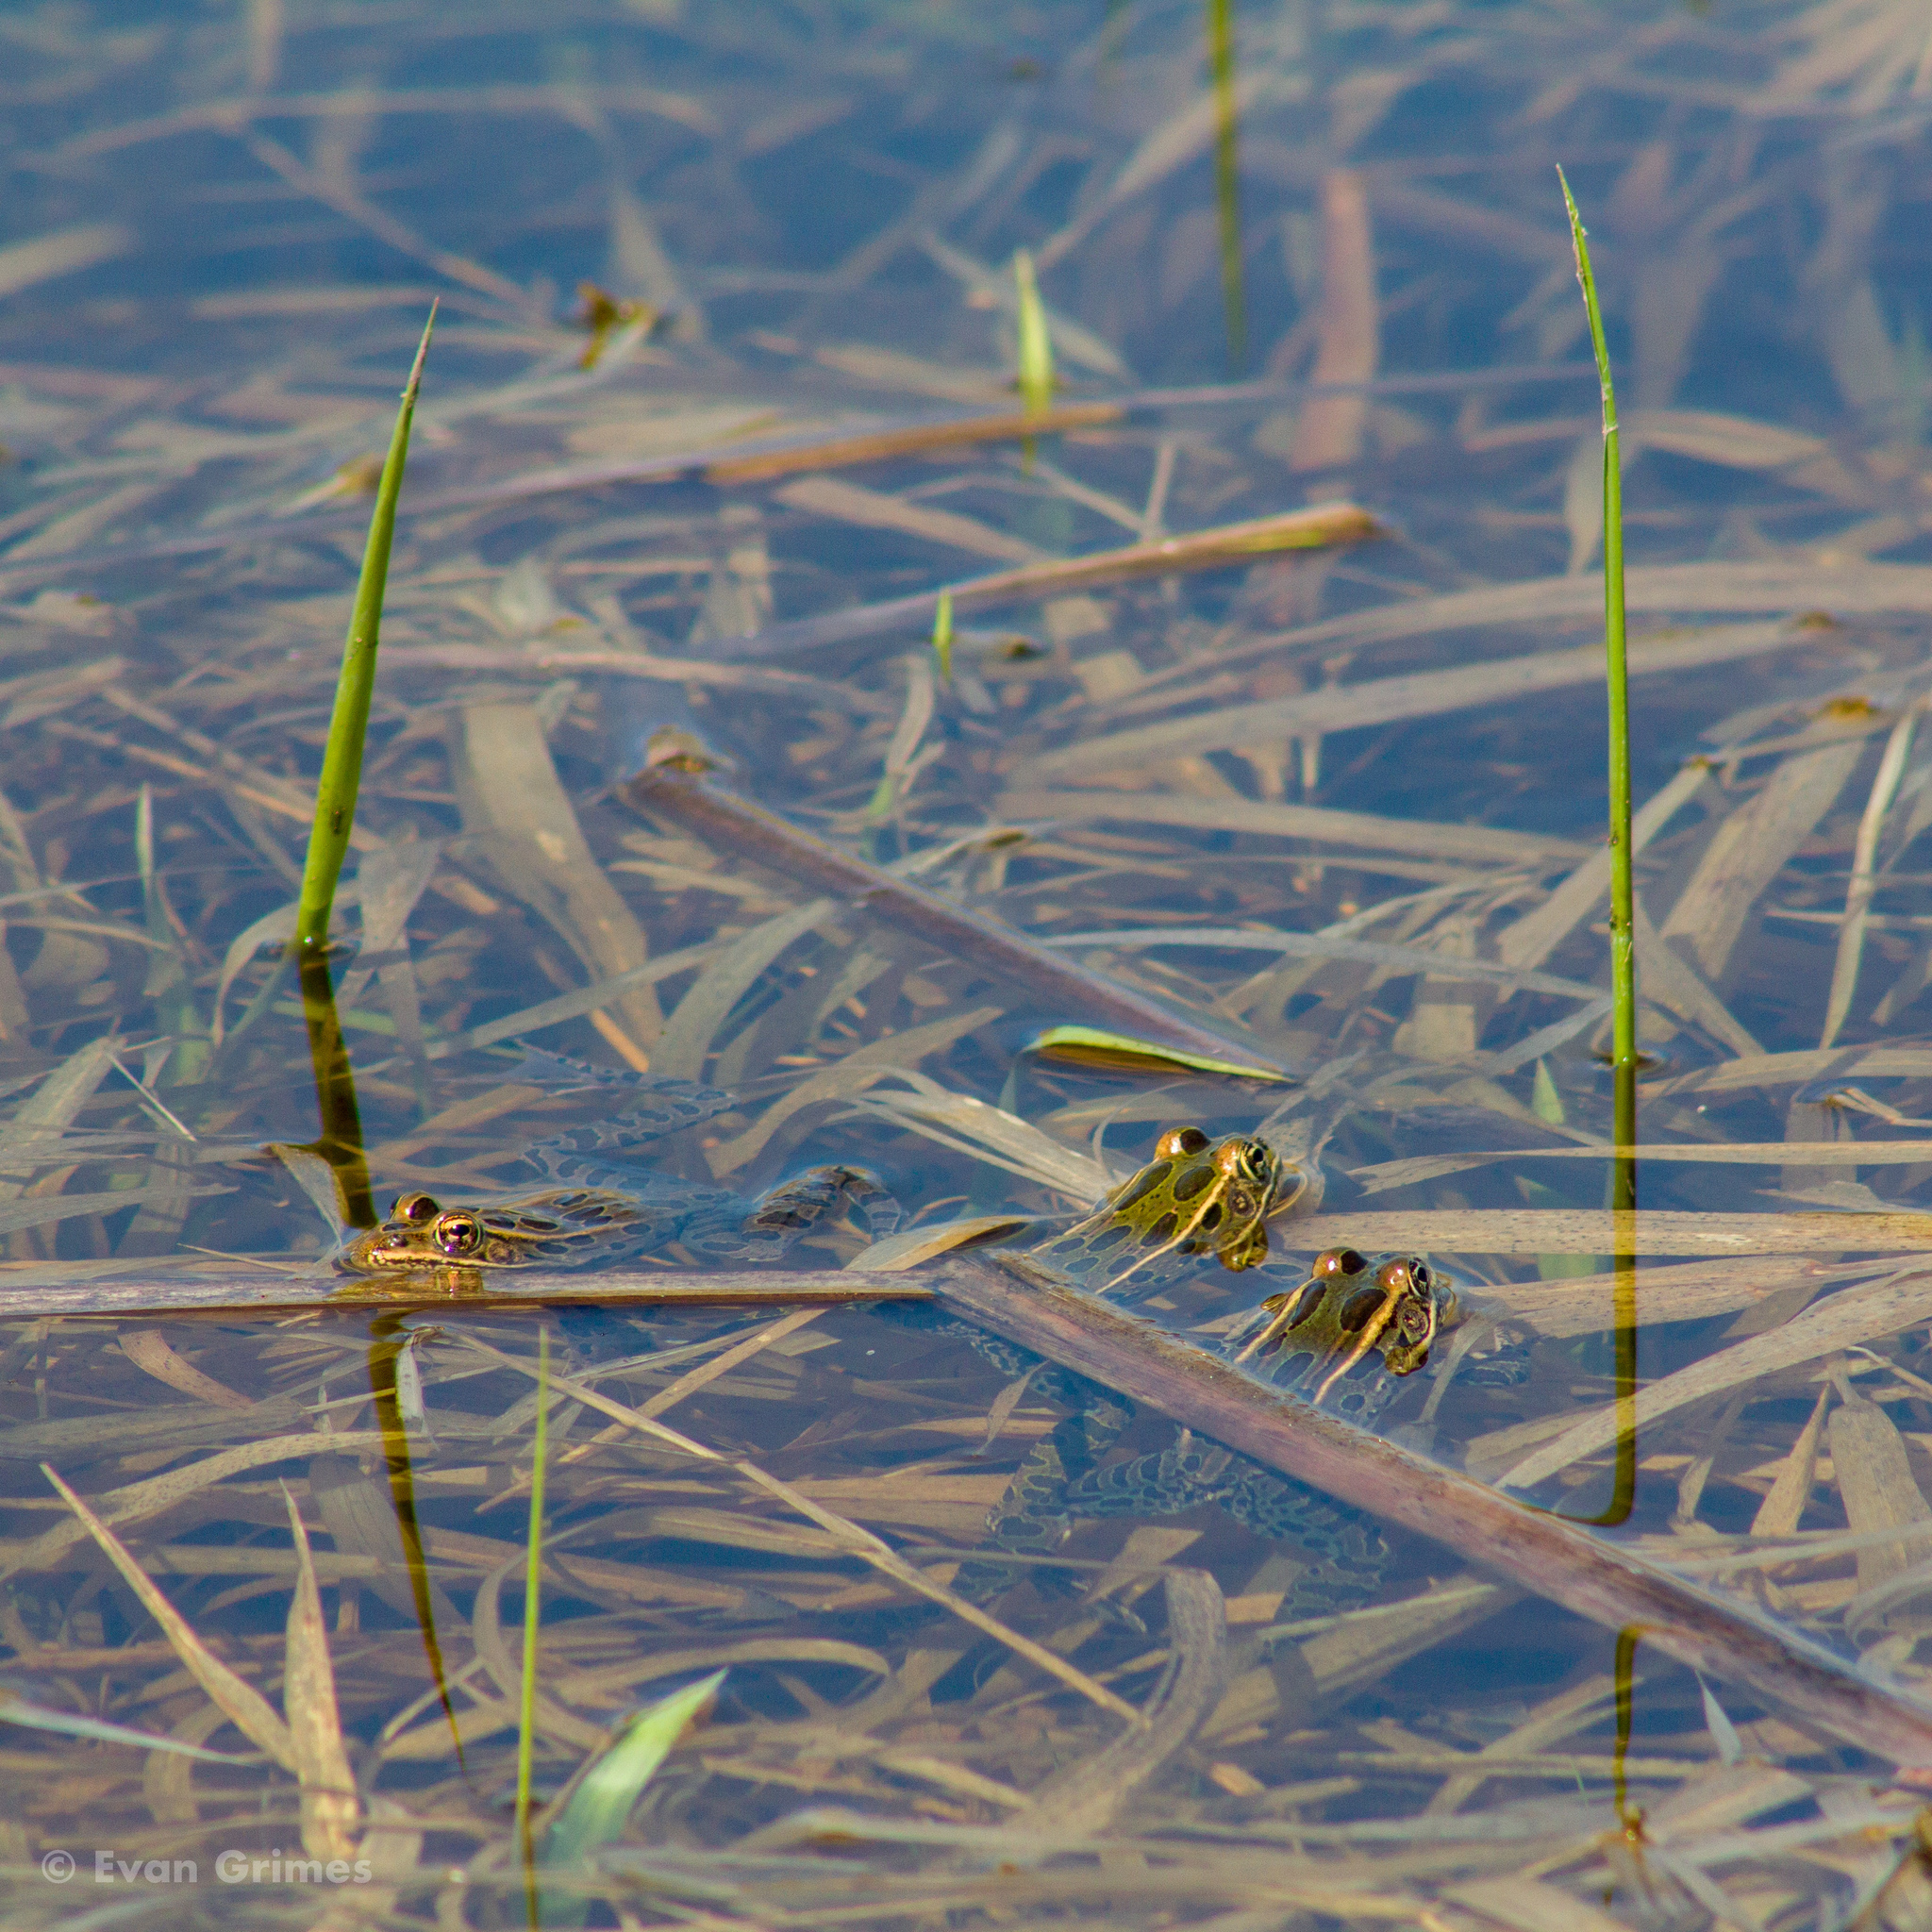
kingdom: Animalia
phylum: Chordata
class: Amphibia
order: Anura
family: Ranidae
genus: Lithobates
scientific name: Lithobates pipiens
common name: Northern leopard frog
